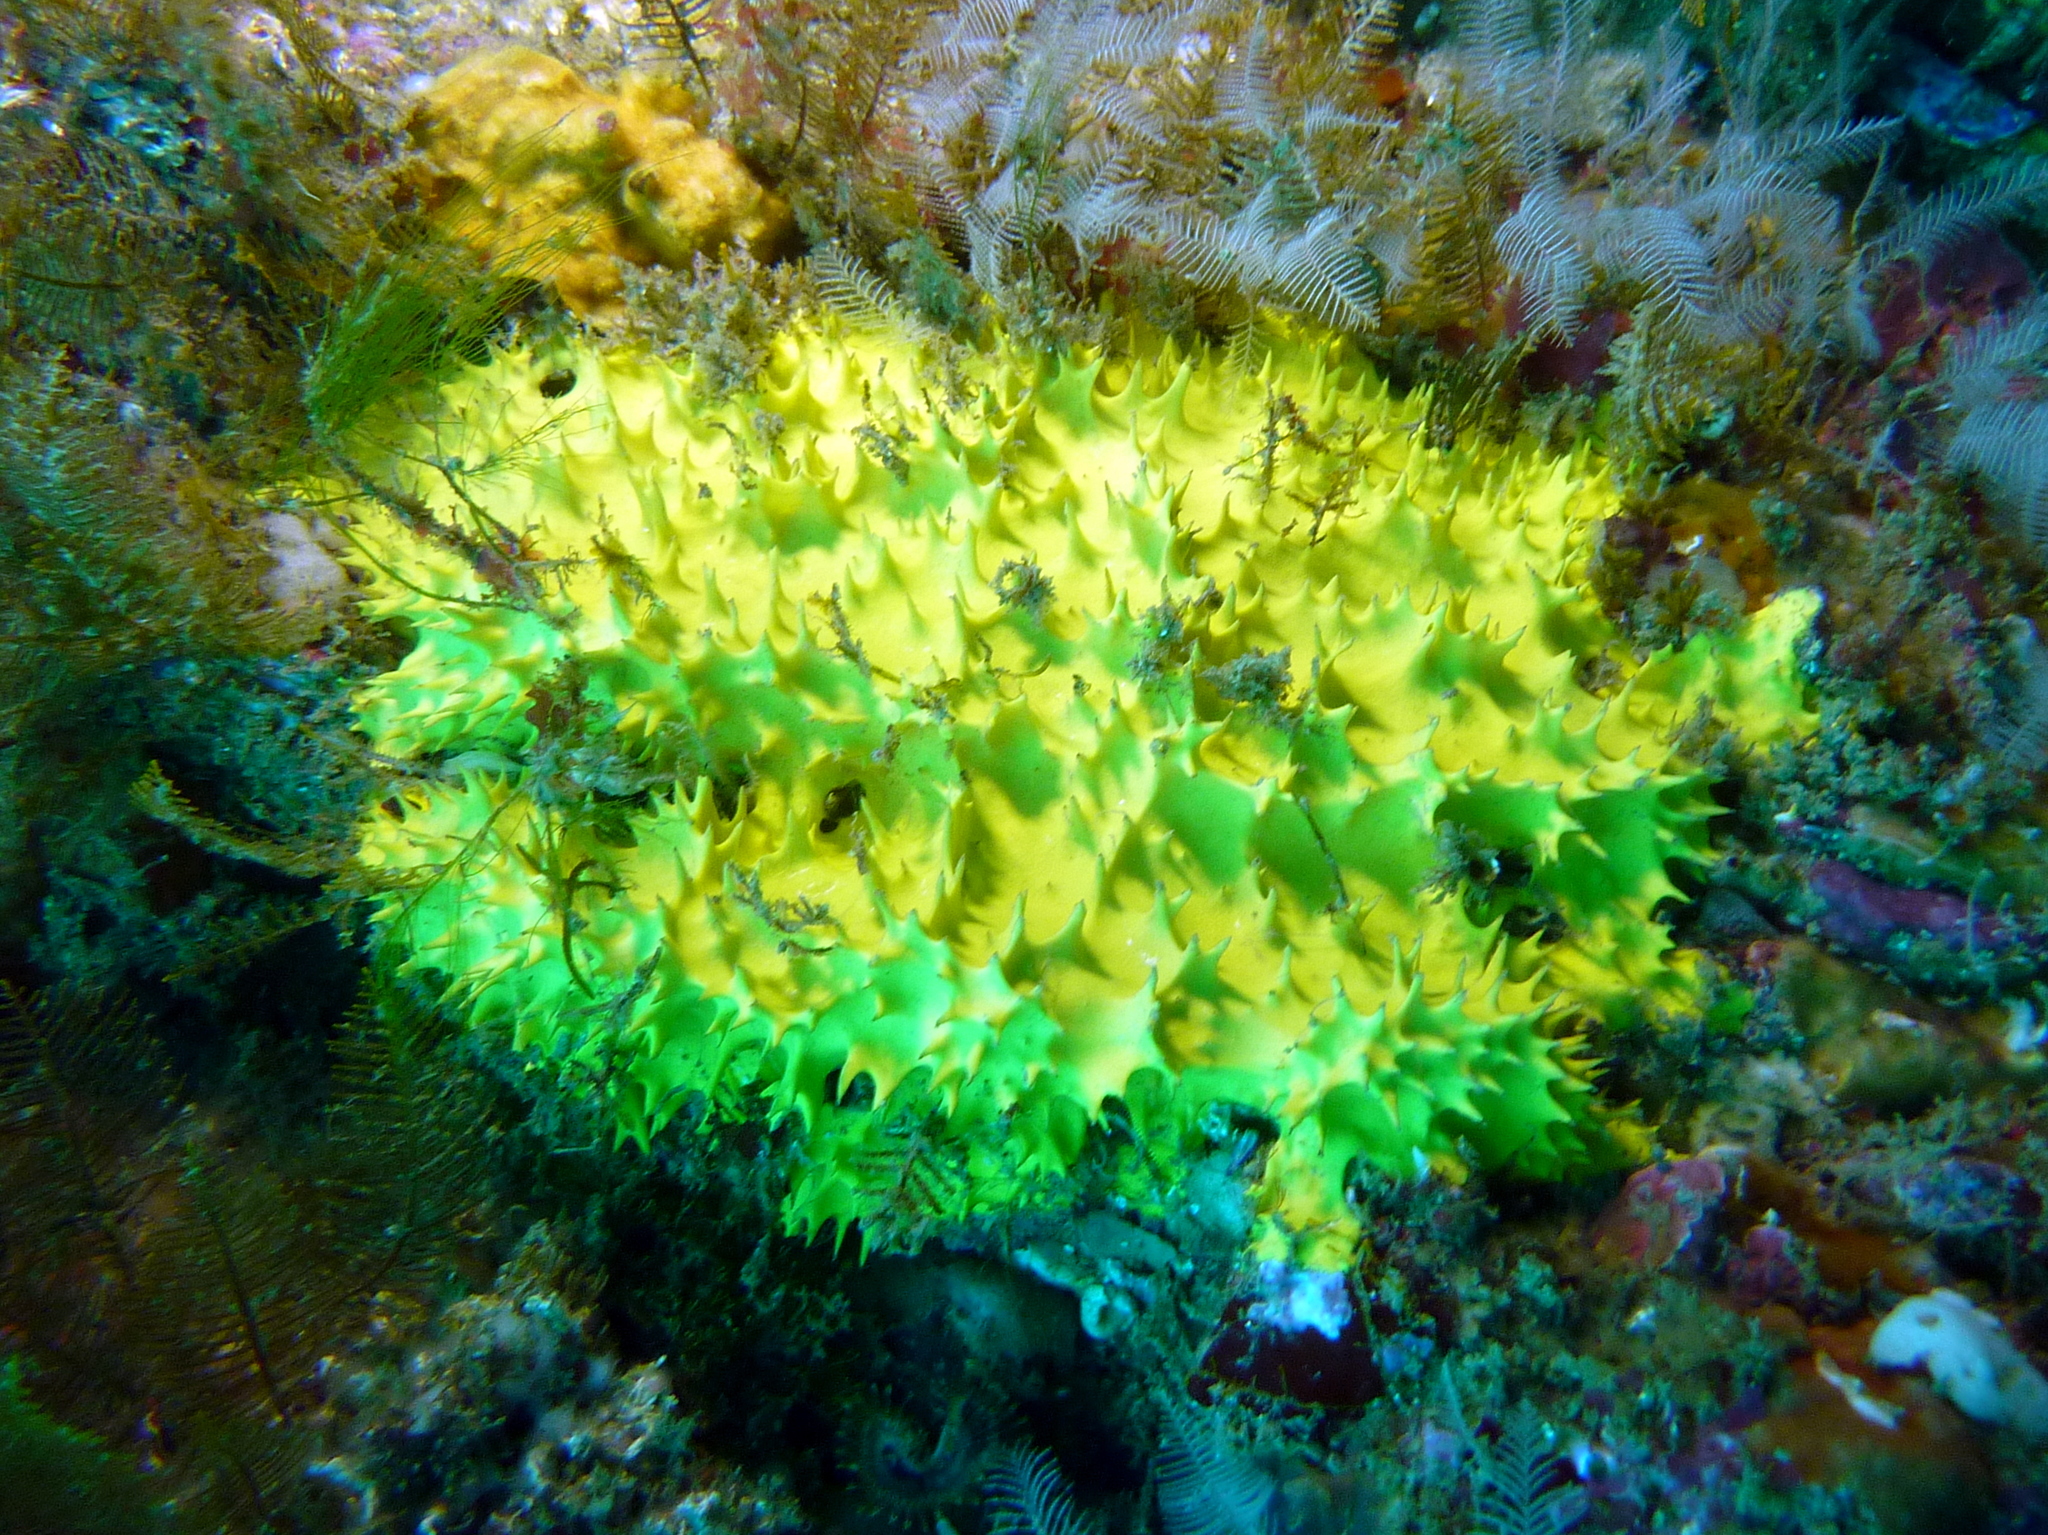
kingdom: Animalia
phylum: Porifera
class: Demospongiae
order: Dendroceratida
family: Darwinellidae
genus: Darwinella
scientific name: Darwinella australiensis
